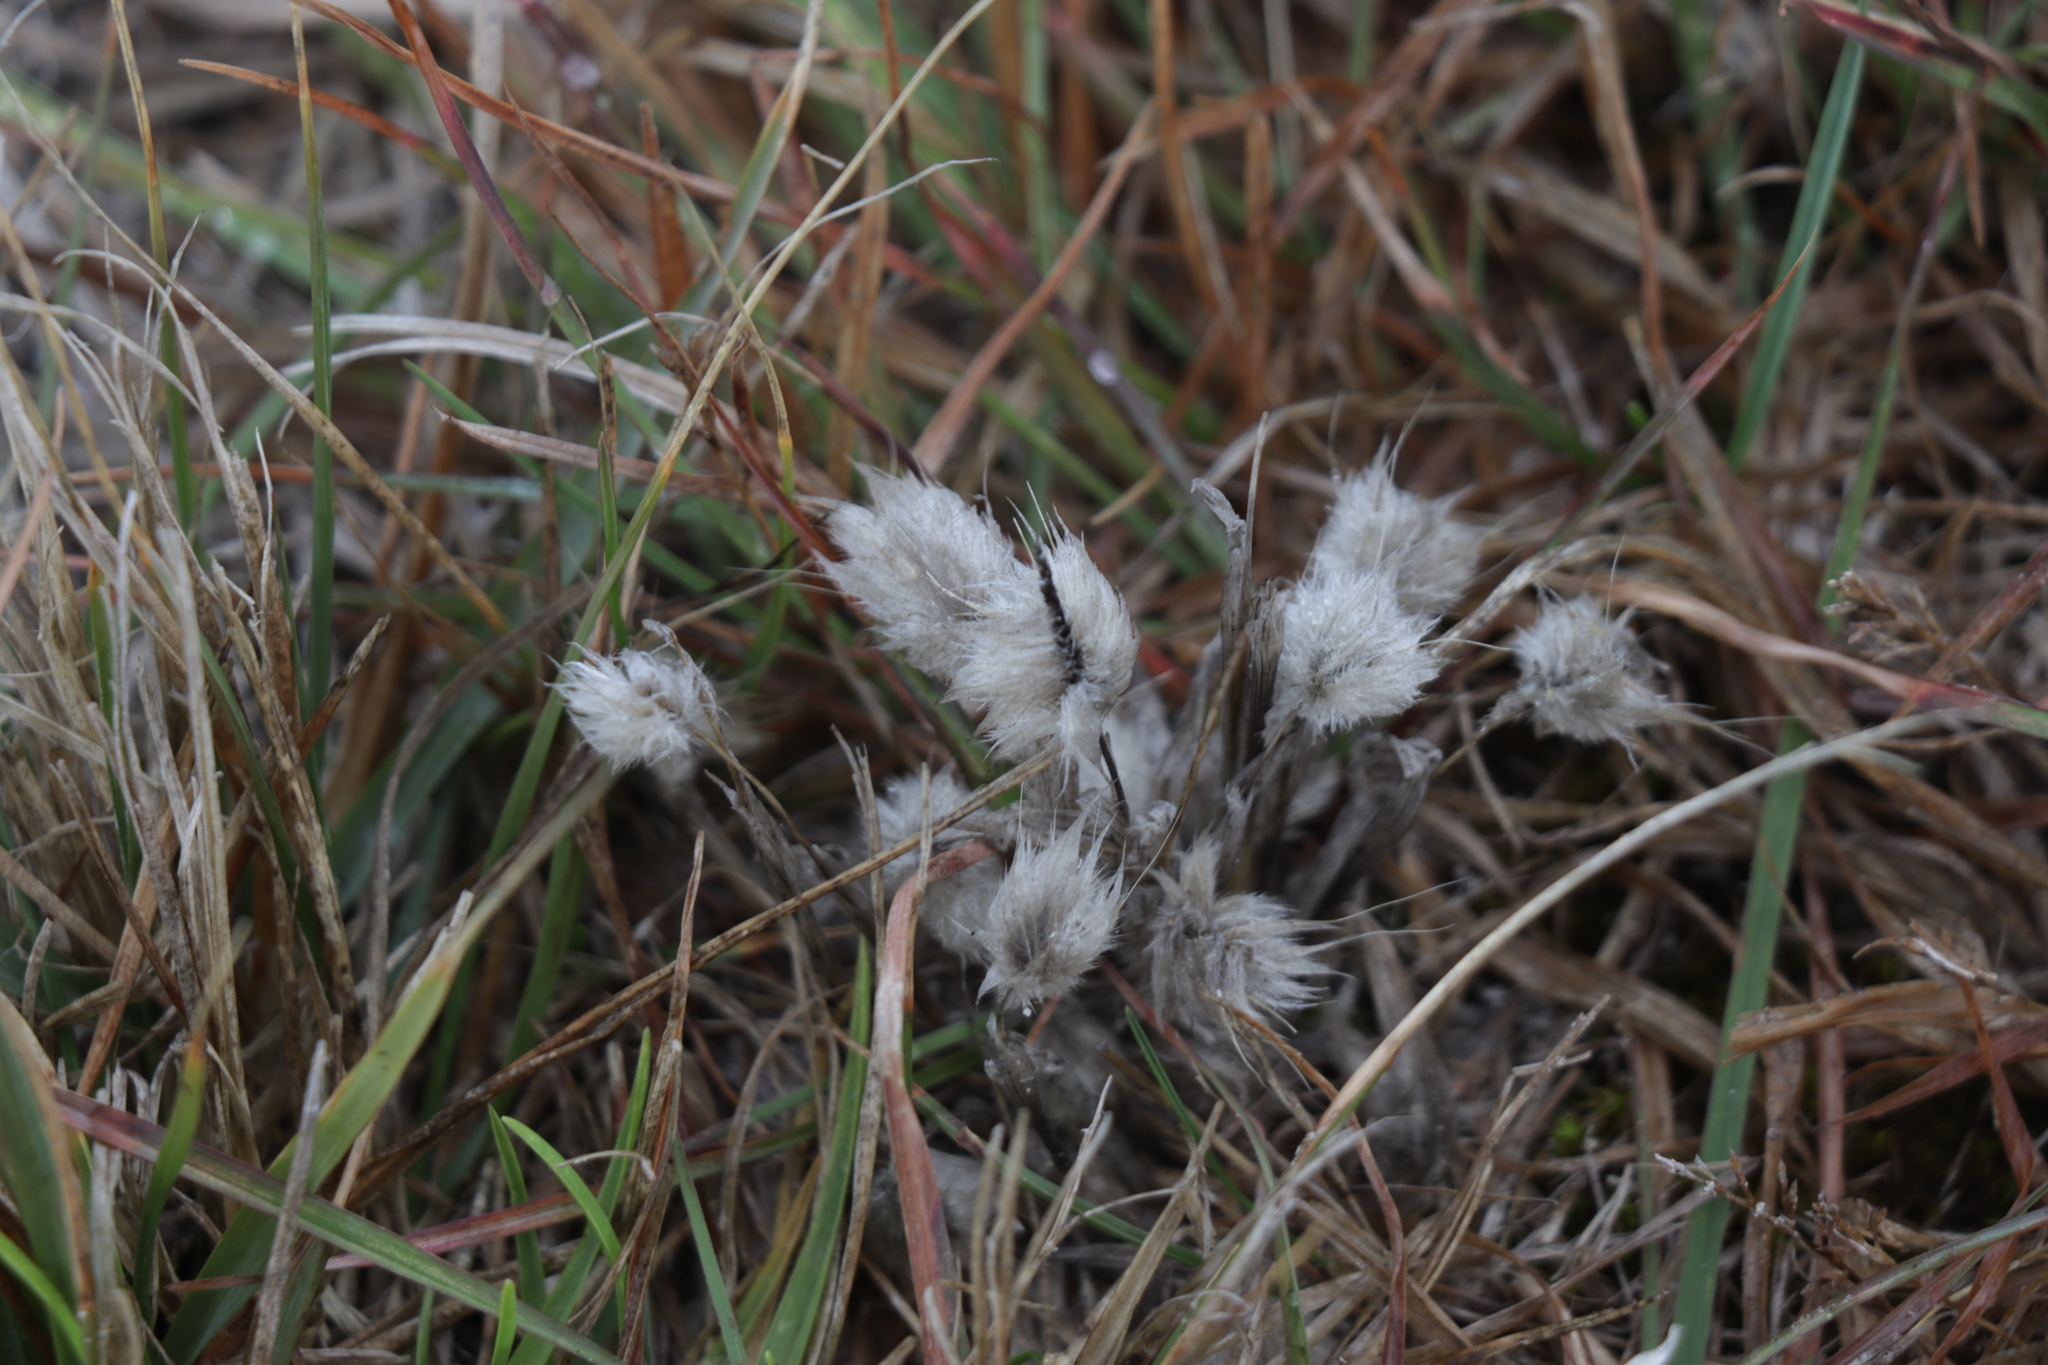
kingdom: Plantae
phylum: Tracheophyta
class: Liliopsida
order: Poales
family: Poaceae
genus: Lagurus
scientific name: Lagurus ovatus
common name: Hare's-tail
